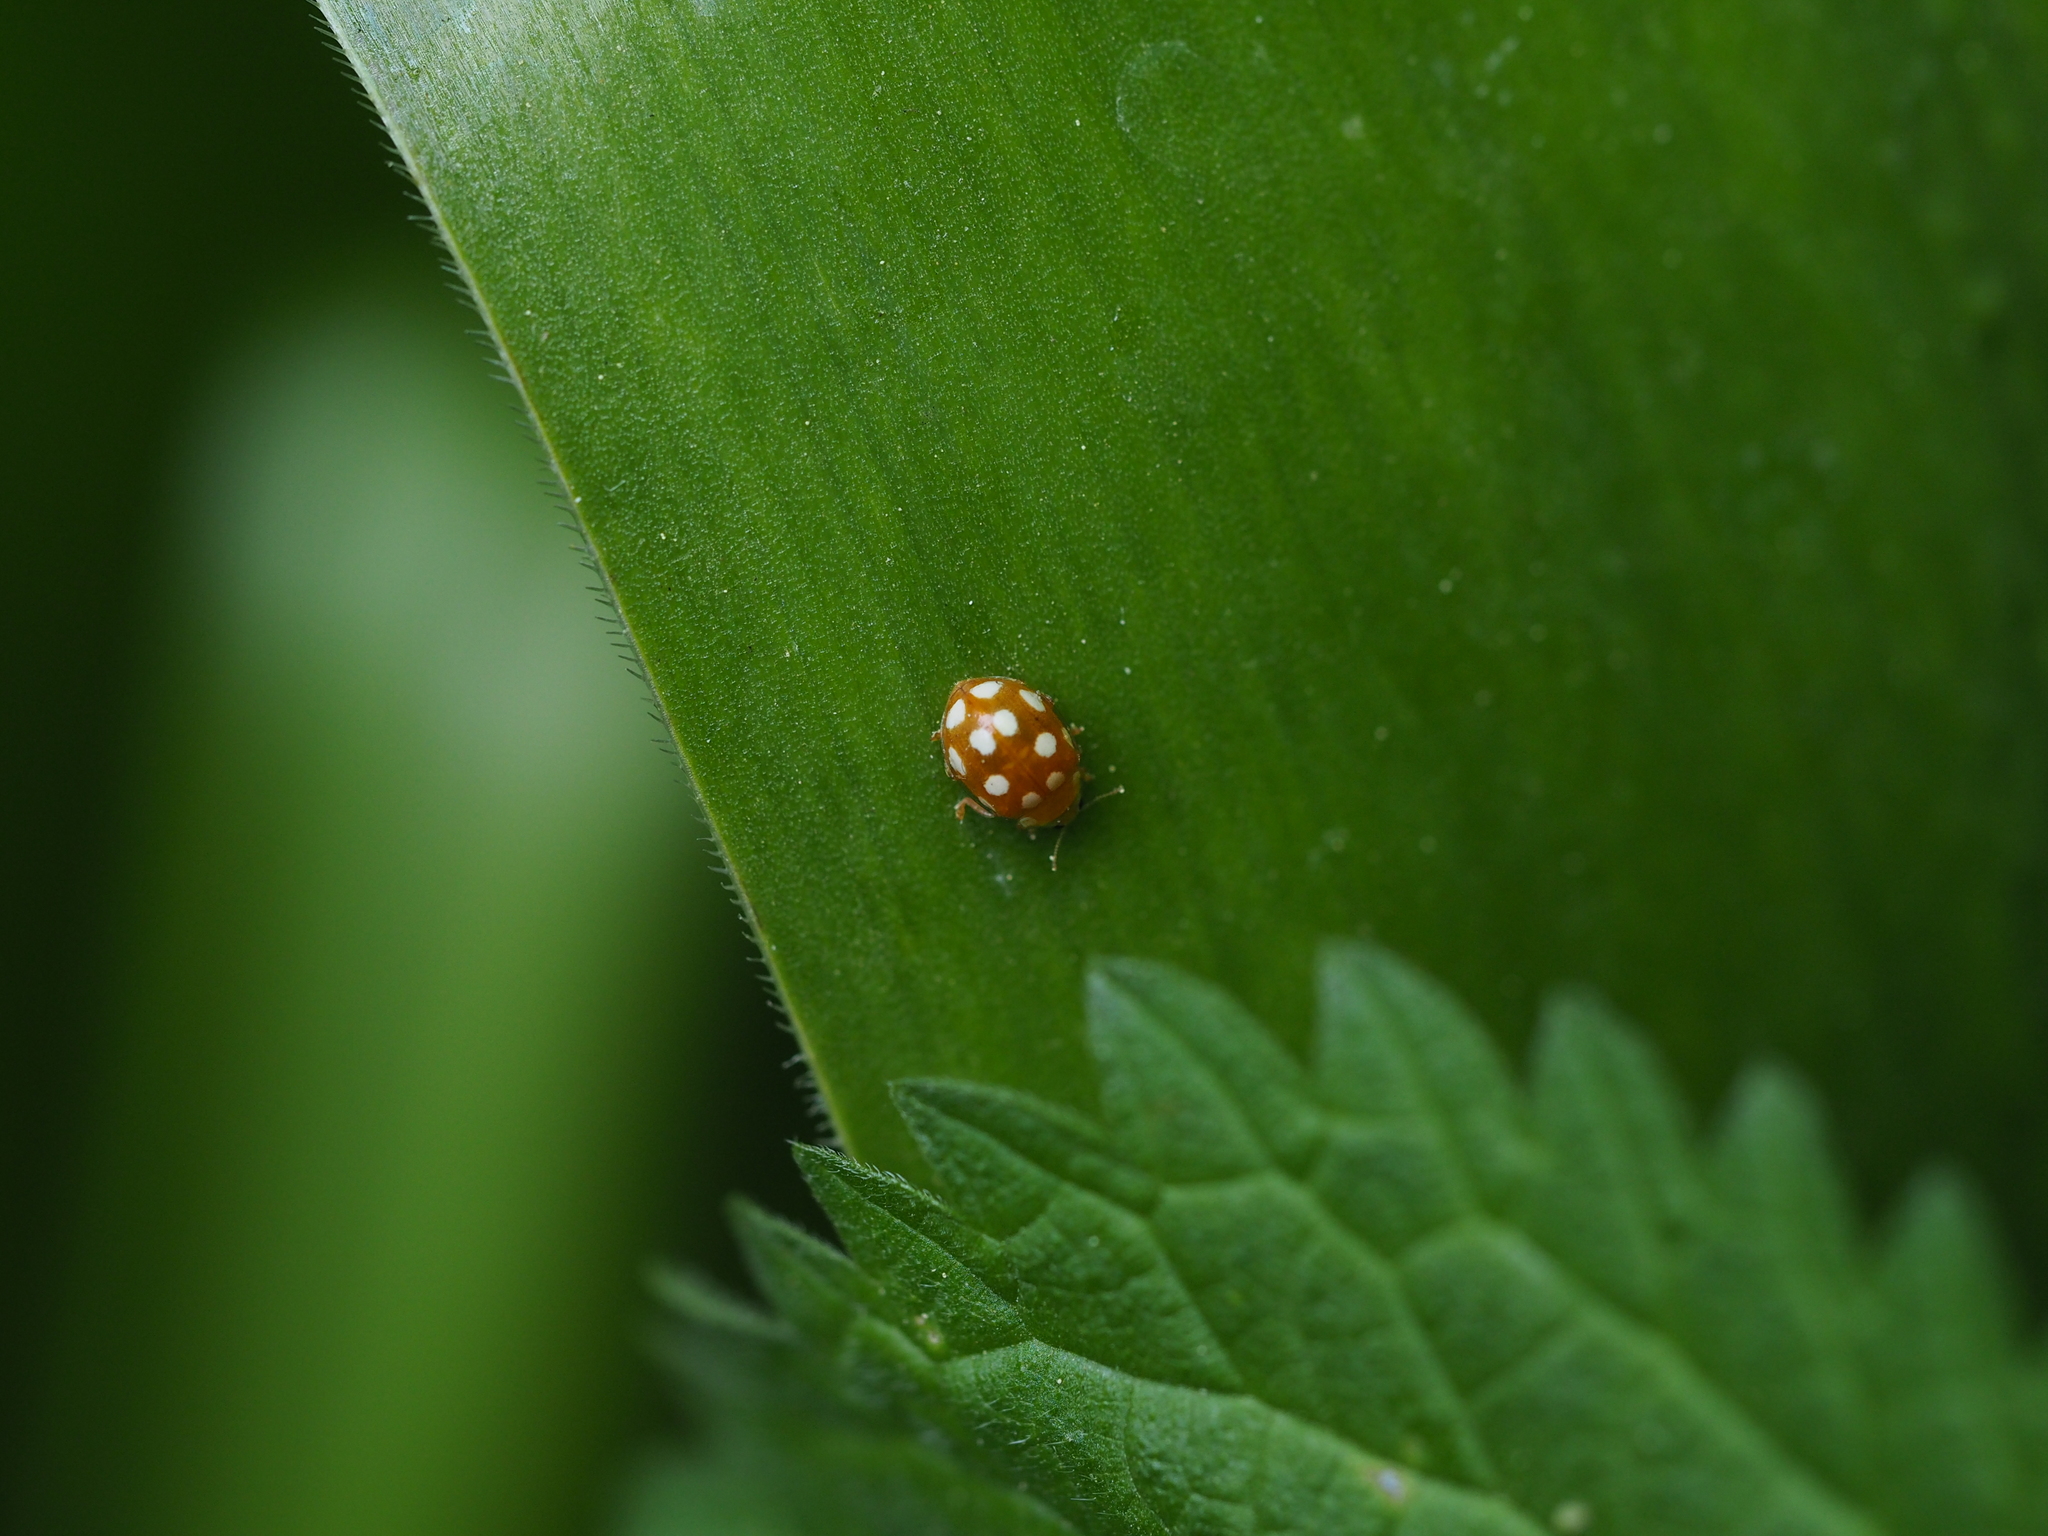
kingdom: Animalia
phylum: Arthropoda
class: Insecta
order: Coleoptera
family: Coccinellidae
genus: Vibidia
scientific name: Vibidia duodecimguttata
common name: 12-spot ladybird
